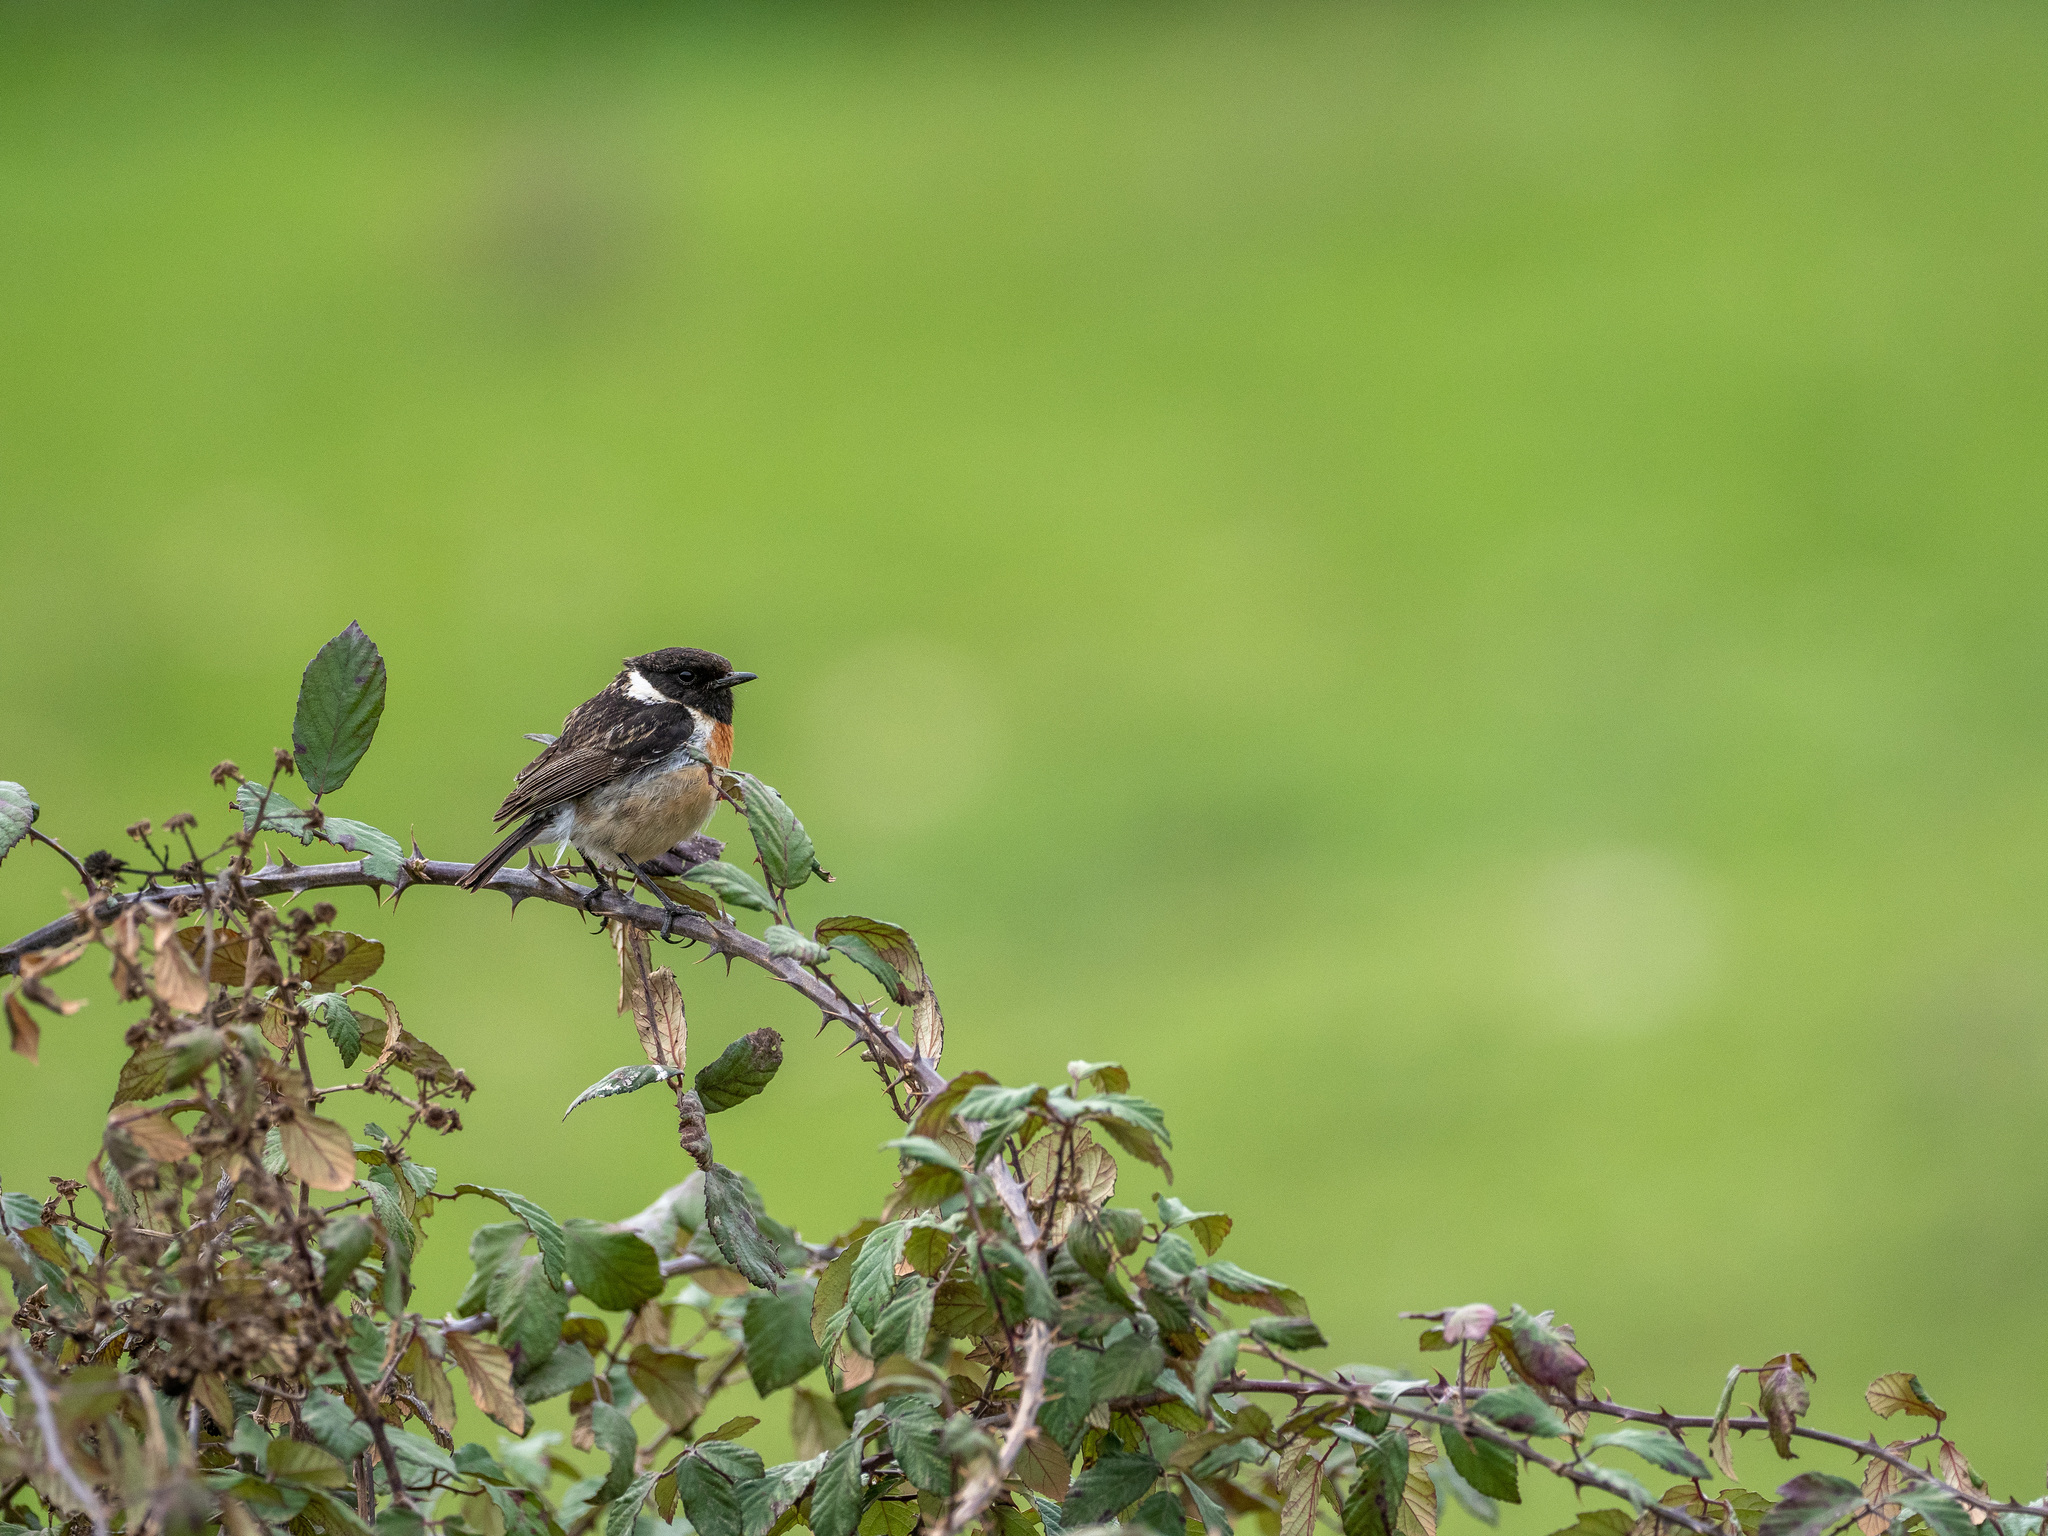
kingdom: Animalia
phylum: Chordata
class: Aves
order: Passeriformes
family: Muscicapidae
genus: Saxicola
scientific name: Saxicola rubicola
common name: European stonechat
